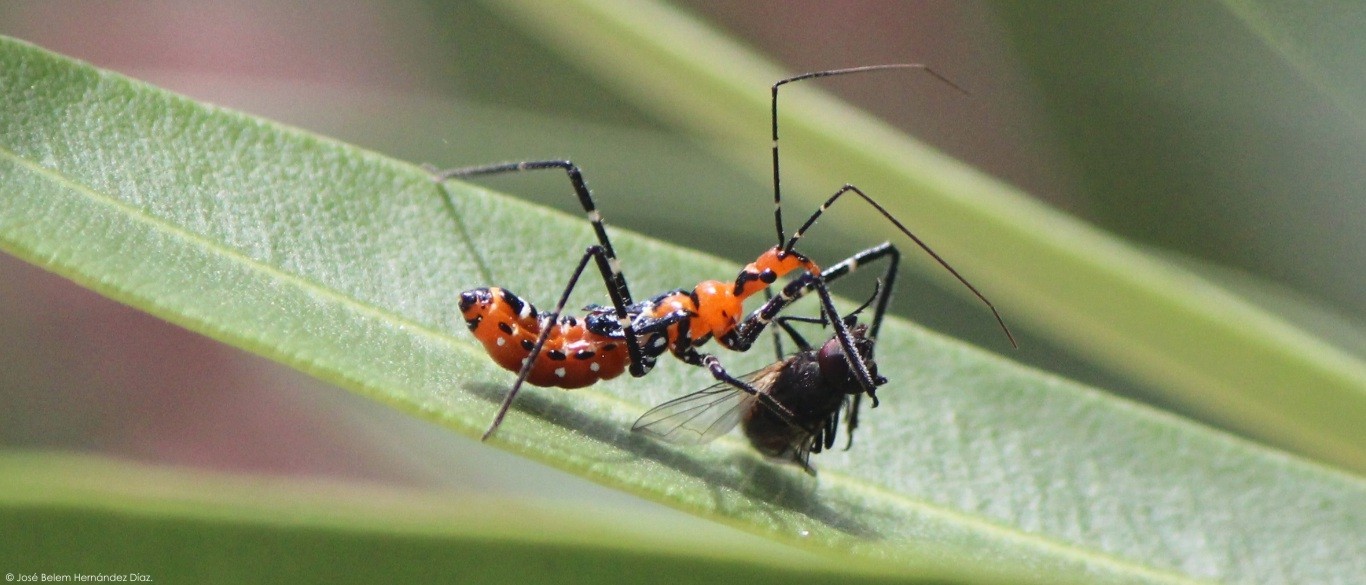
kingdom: Animalia
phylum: Arthropoda
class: Insecta
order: Hemiptera
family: Reduviidae
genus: Zelus
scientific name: Zelus longipes
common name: Milkweed assassin bug
